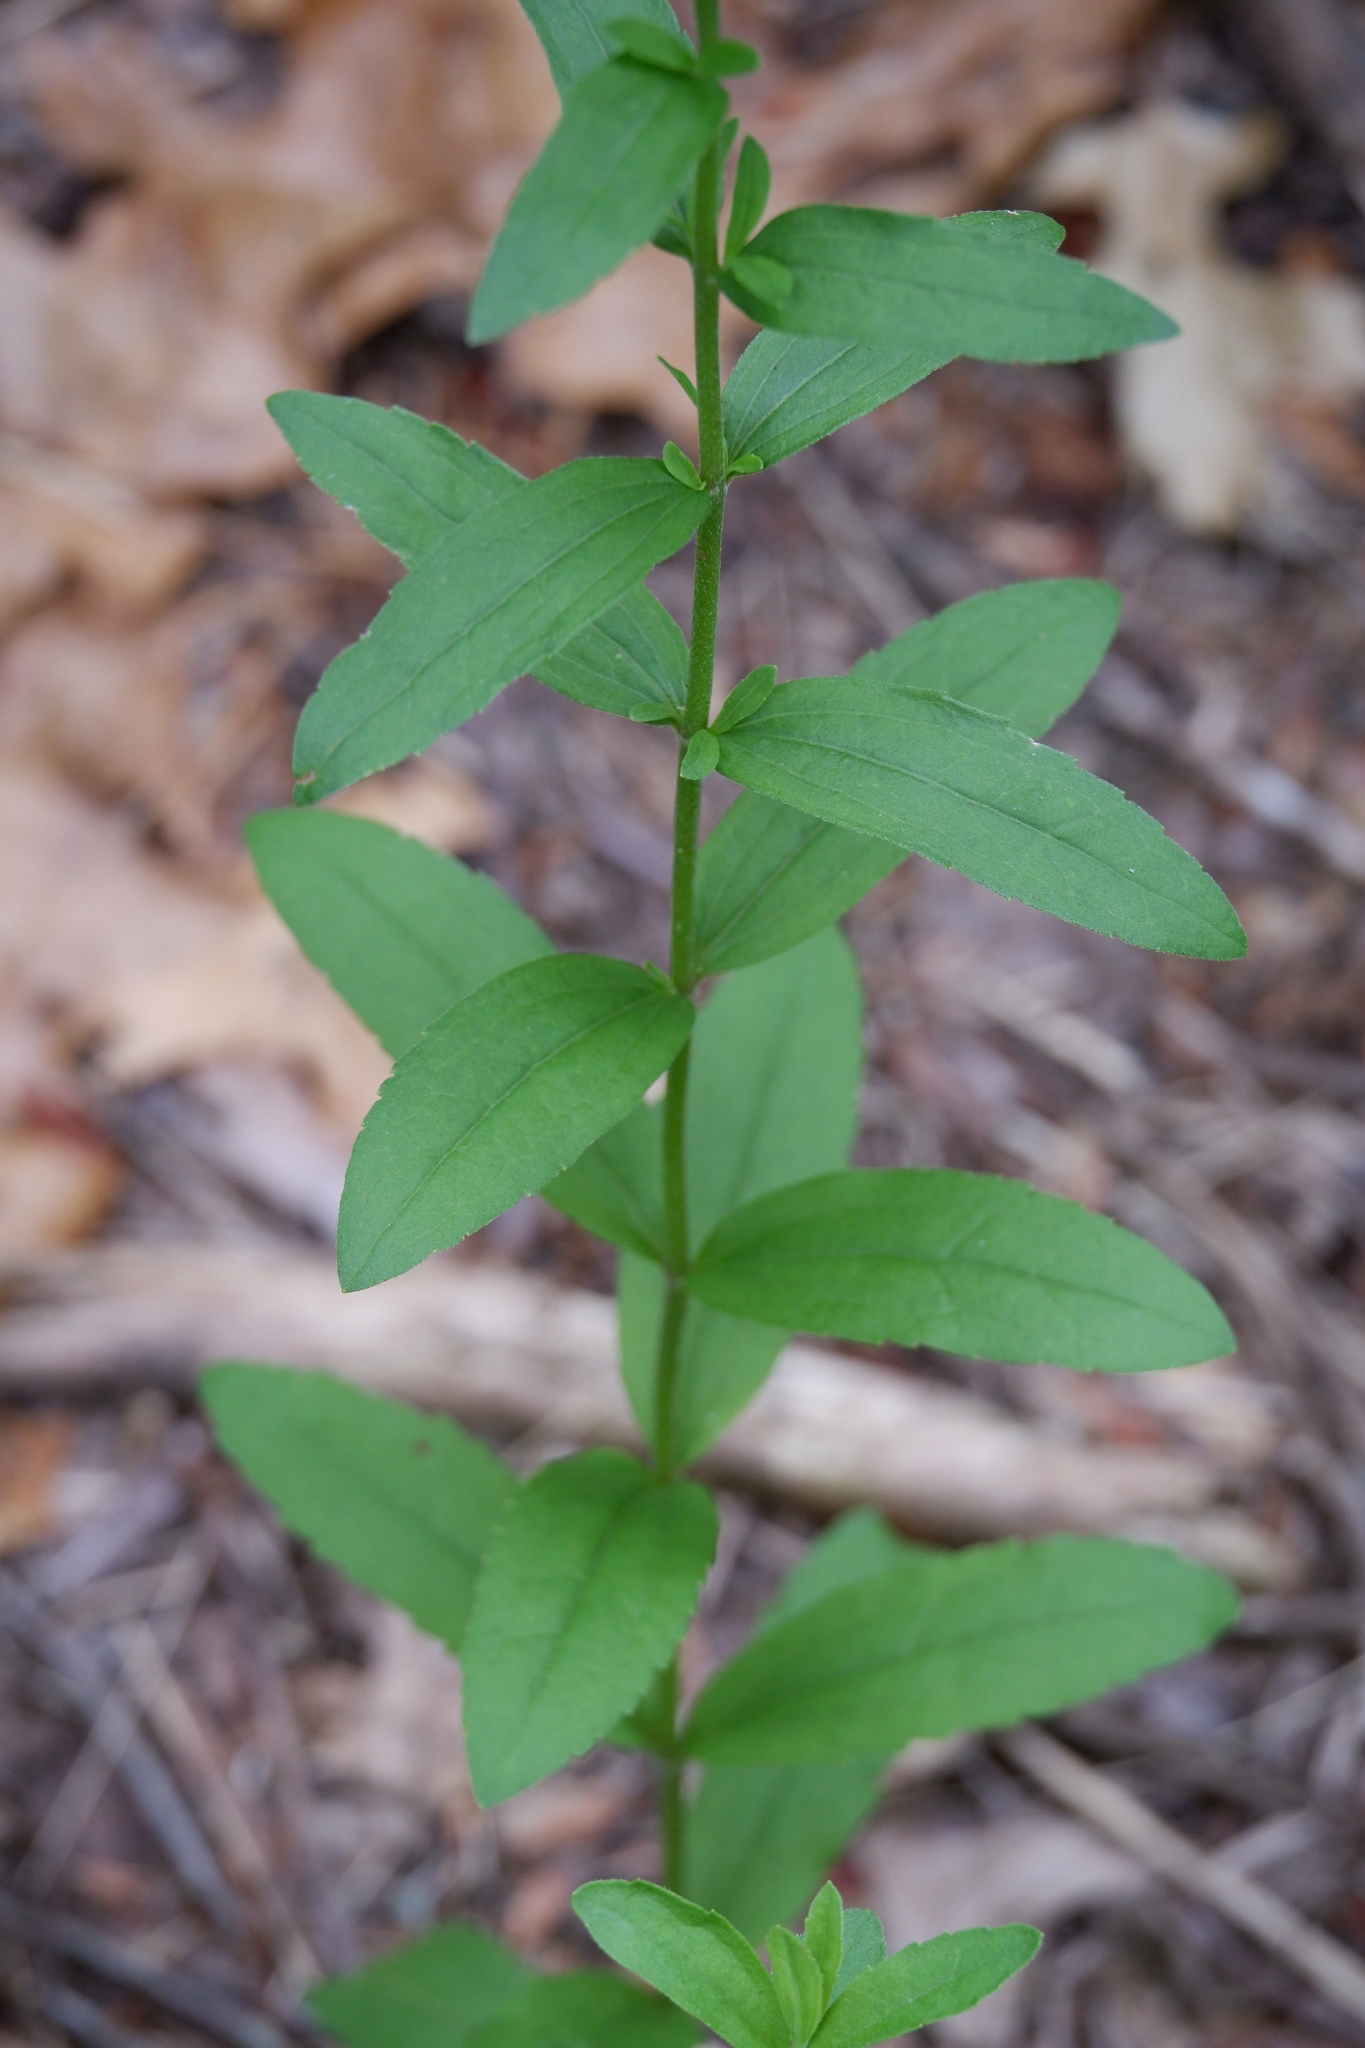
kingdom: Plantae
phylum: Tracheophyta
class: Magnoliopsida
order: Asterales
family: Asteraceae
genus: Eupatorium
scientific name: Eupatorium album
